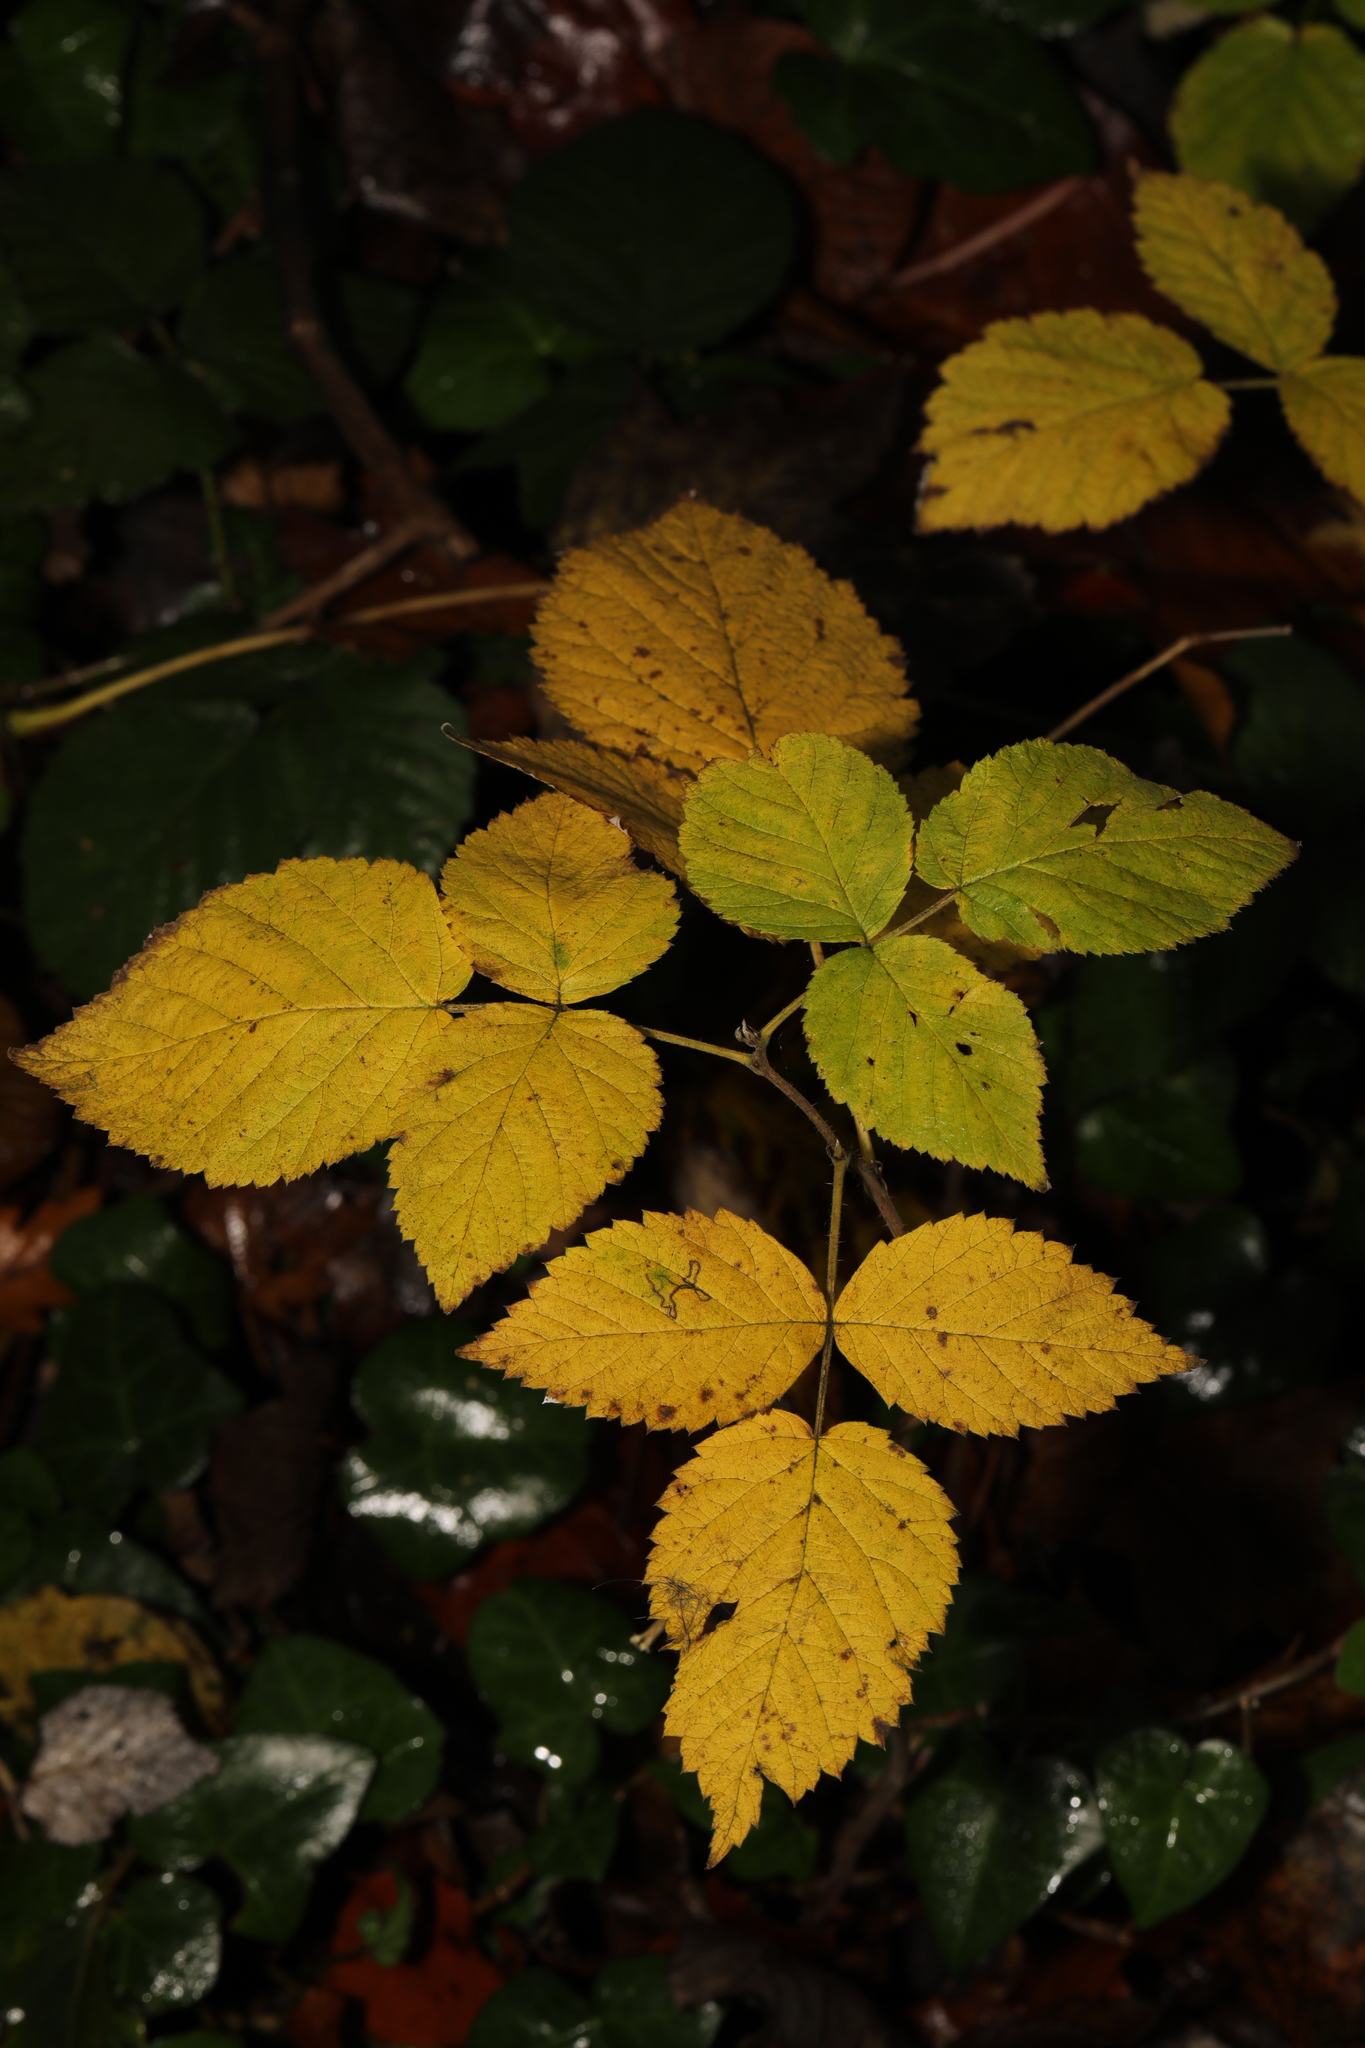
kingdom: Plantae
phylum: Tracheophyta
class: Magnoliopsida
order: Rosales
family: Rosaceae
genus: Rubus
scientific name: Rubus idaeus
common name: Raspberry
